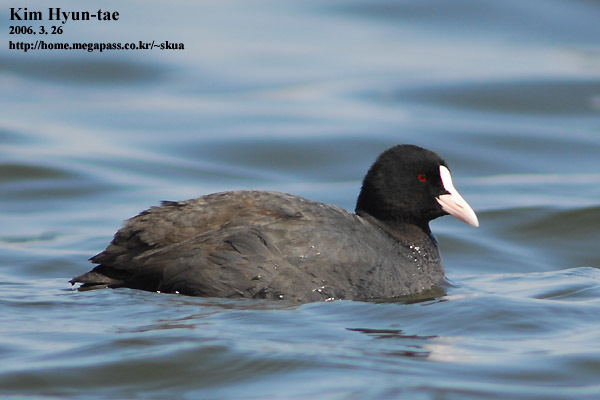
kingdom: Animalia
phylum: Chordata
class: Aves
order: Gruiformes
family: Rallidae
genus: Fulica
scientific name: Fulica atra
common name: Eurasian coot
